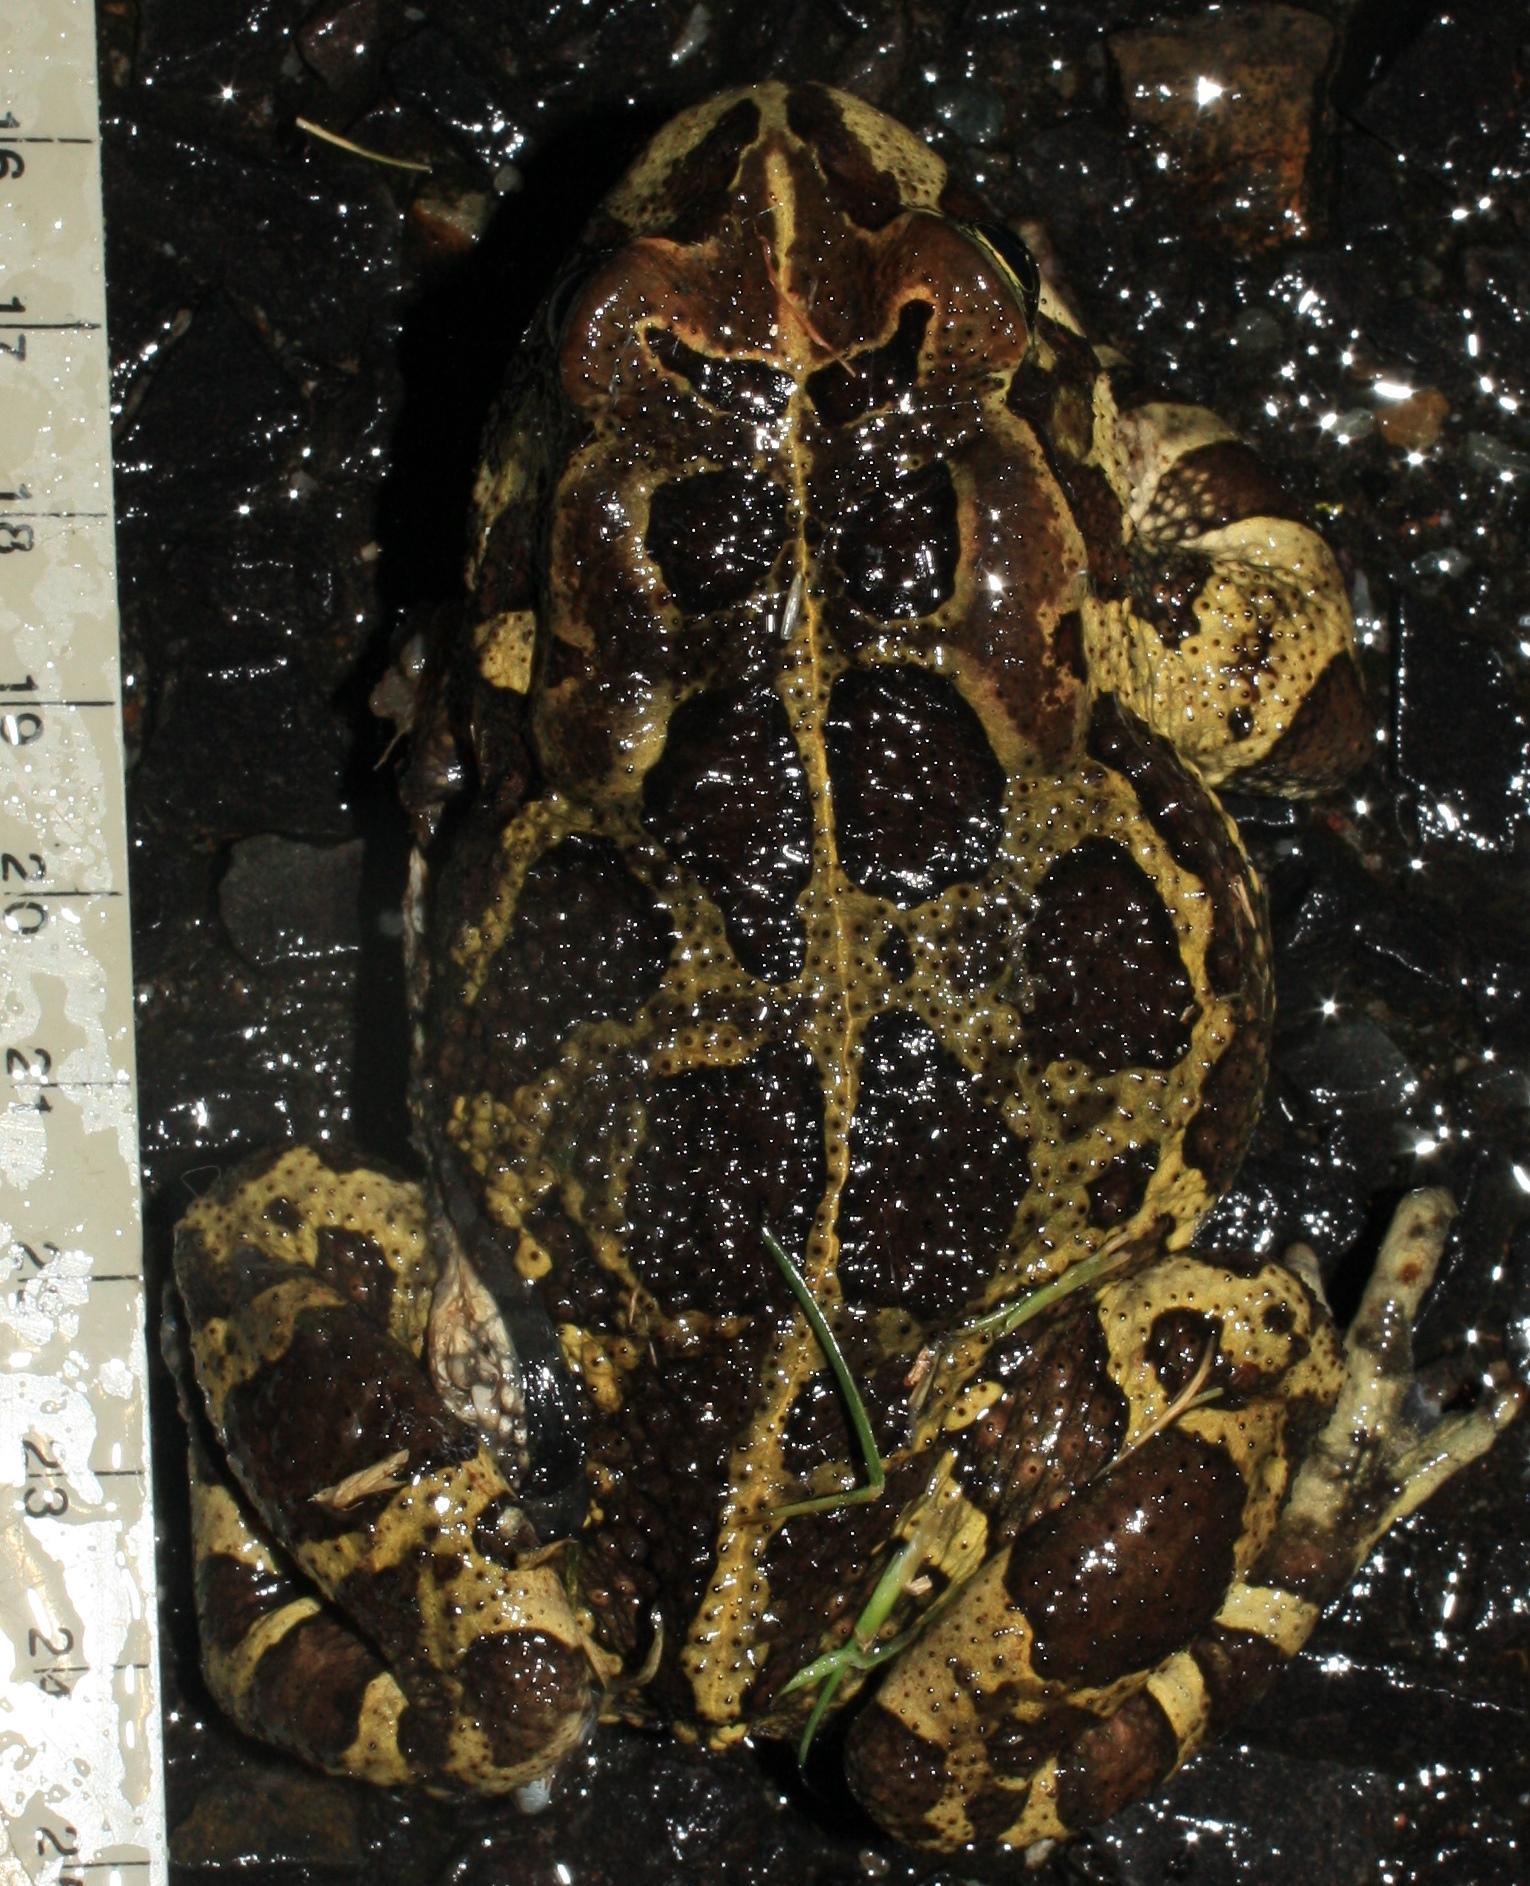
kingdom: Animalia
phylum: Chordata
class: Amphibia
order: Anura
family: Bufonidae
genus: Sclerophrys
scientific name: Sclerophrys pantherina
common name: Panther toad
